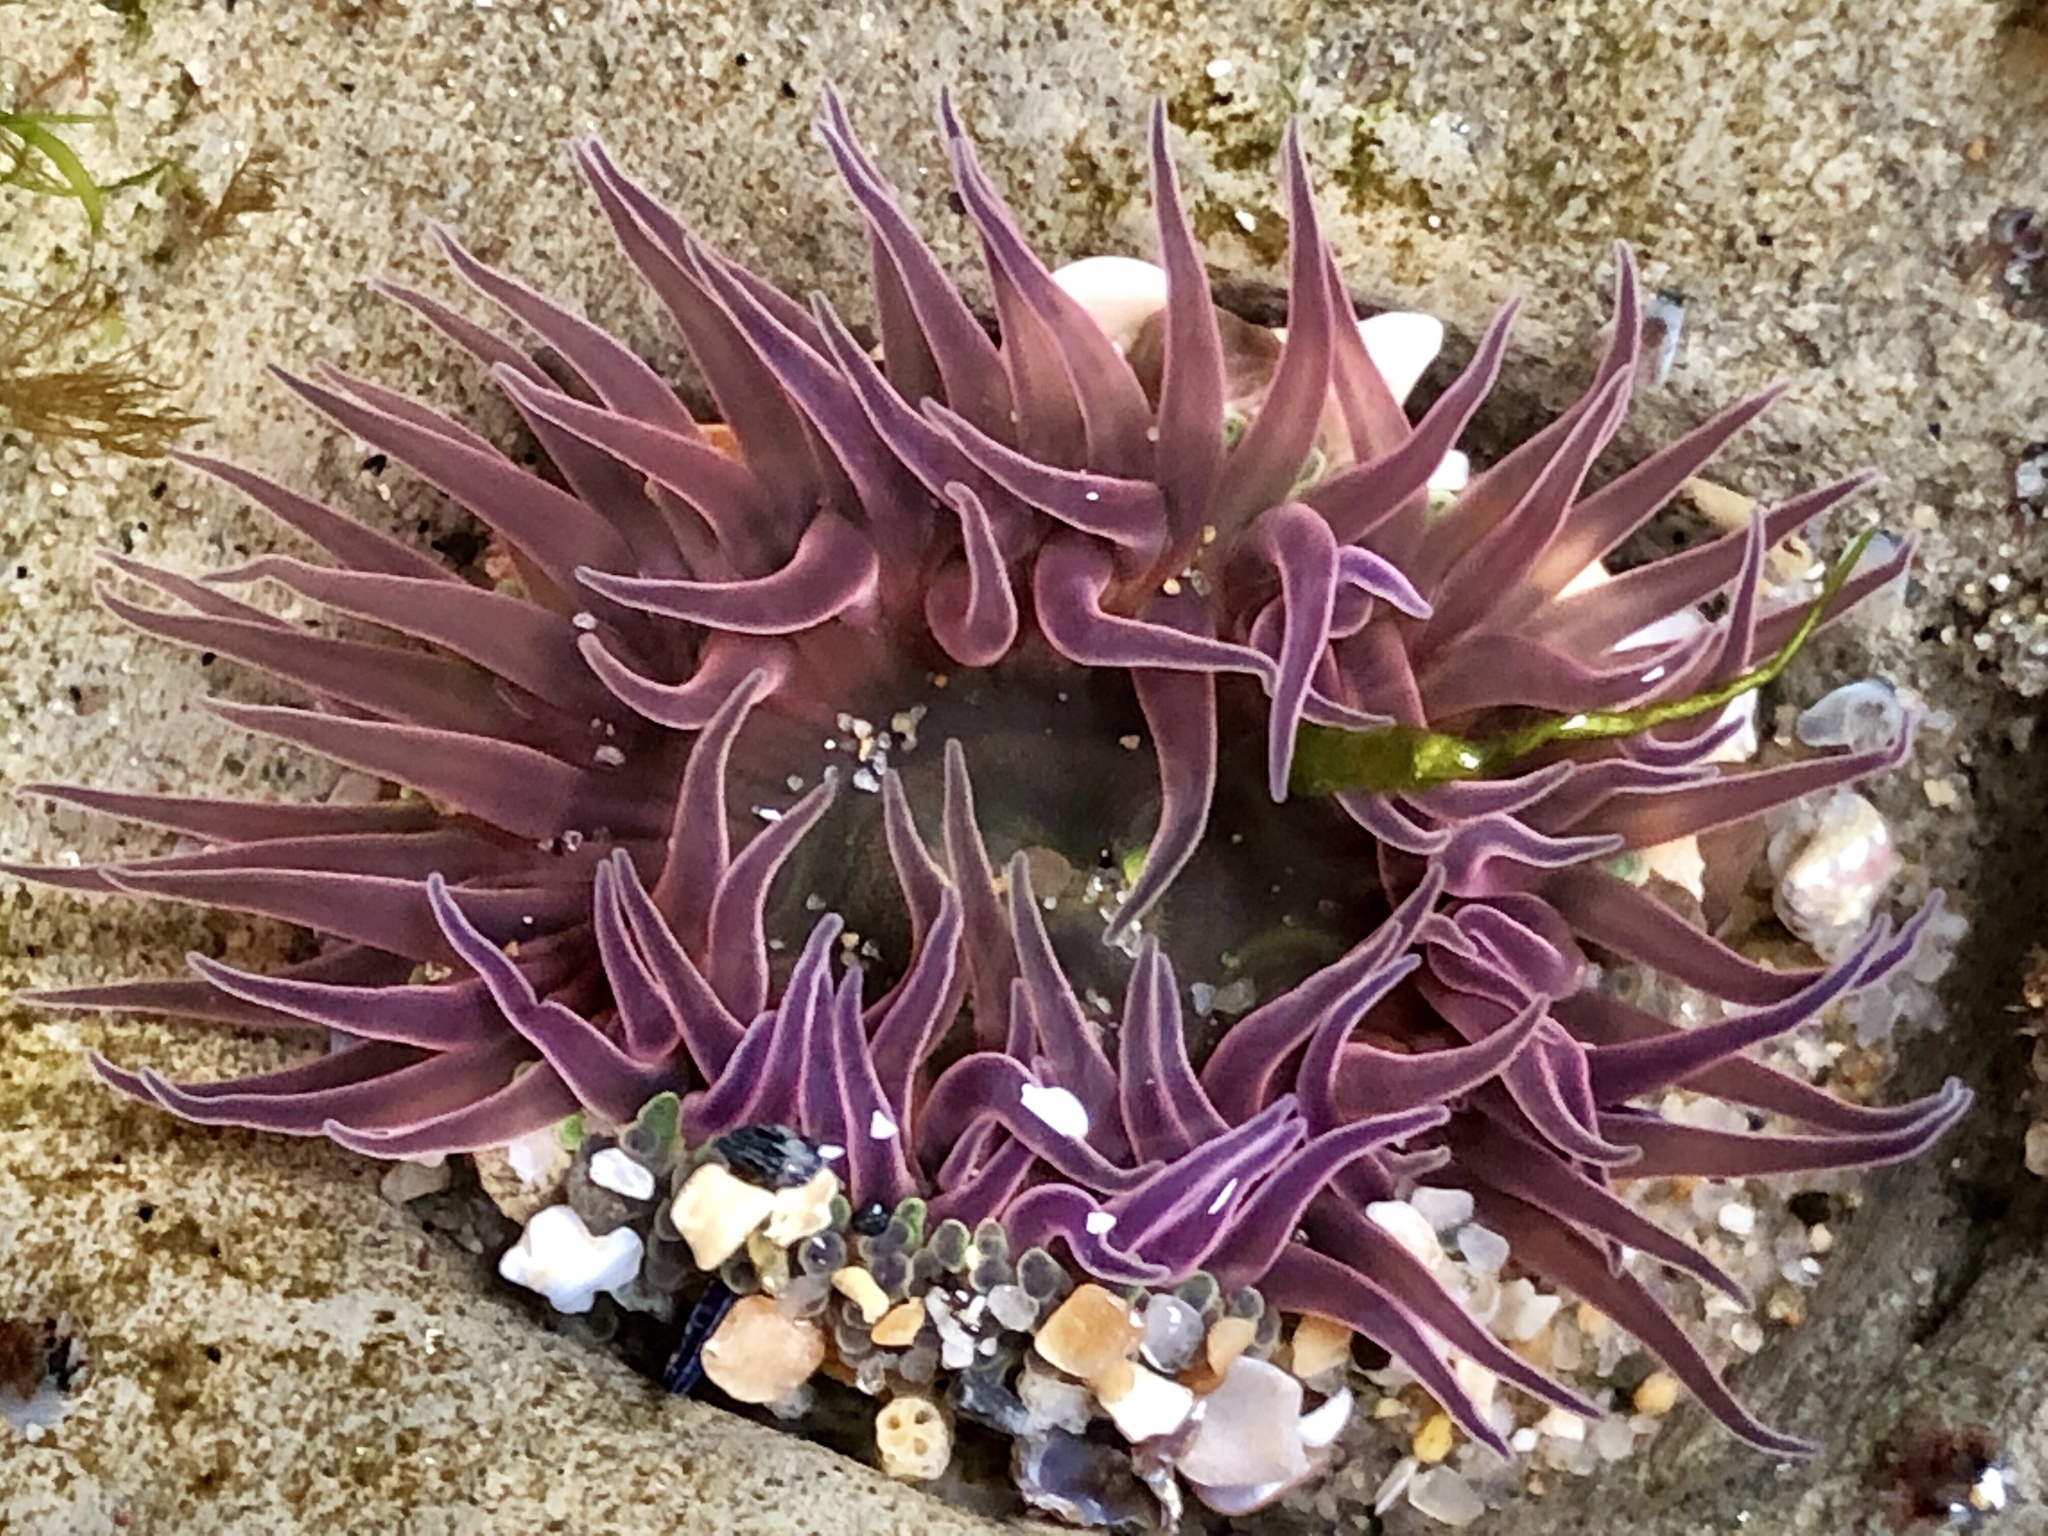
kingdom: Animalia
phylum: Cnidaria
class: Anthozoa
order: Actiniaria
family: Actiniidae
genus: Anthopleura
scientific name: Anthopleura artemisia
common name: Buried sea anemone
